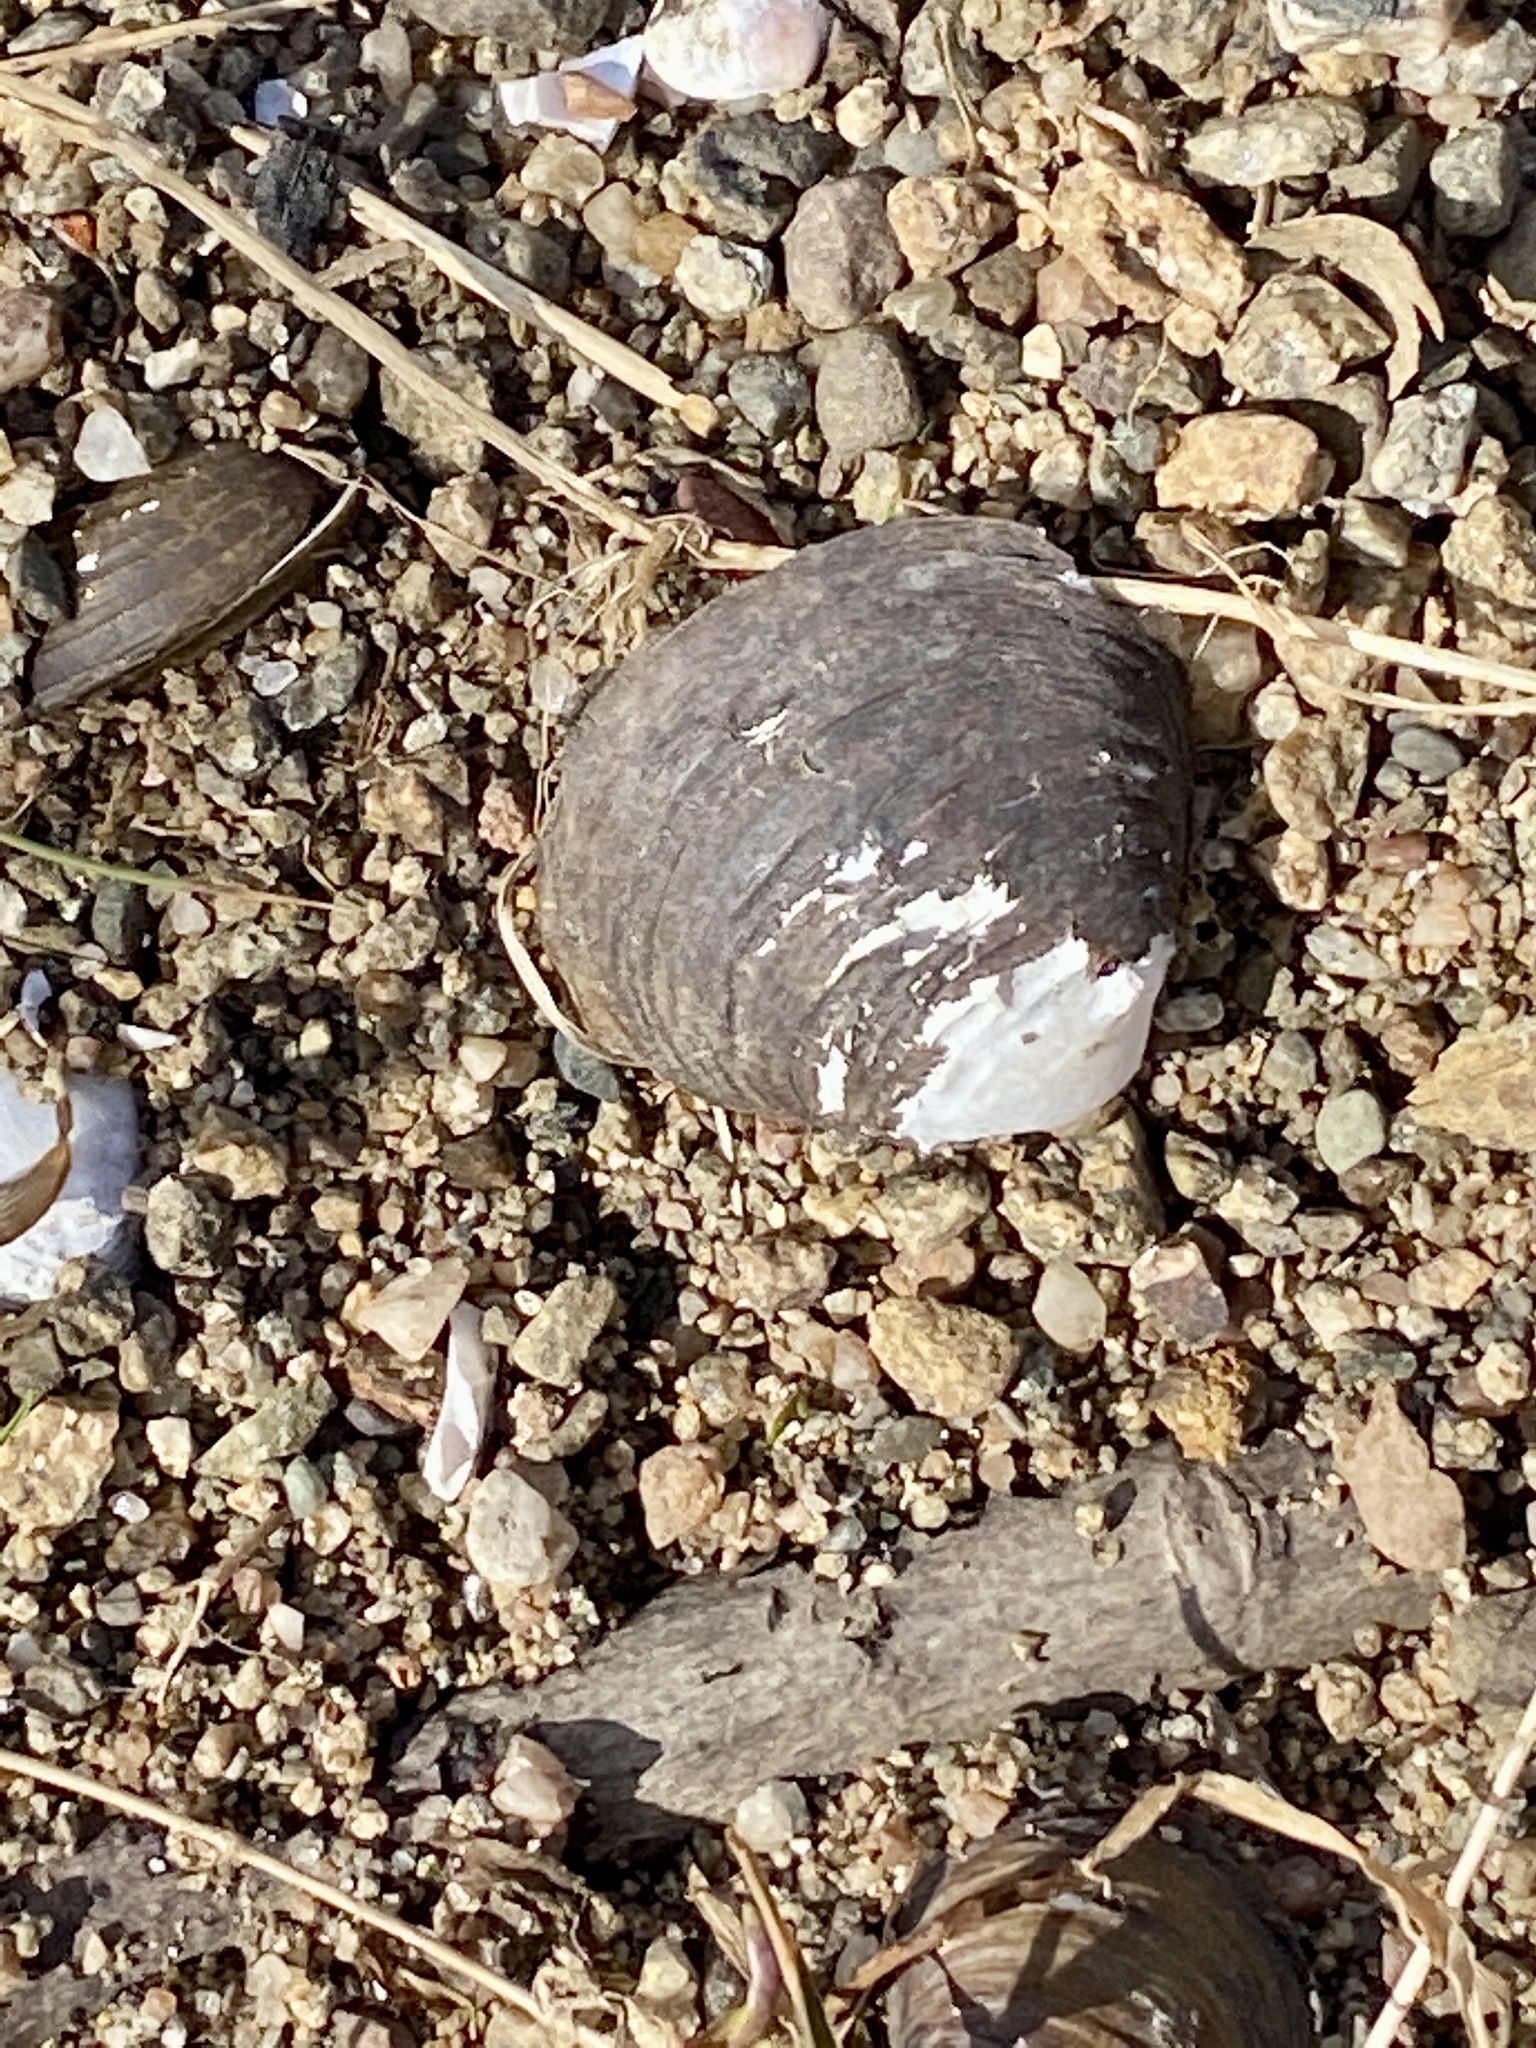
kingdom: Animalia
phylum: Mollusca
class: Bivalvia
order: Venerida
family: Cyrenidae
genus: Corbicula
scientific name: Corbicula fluminea
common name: Asian clam
